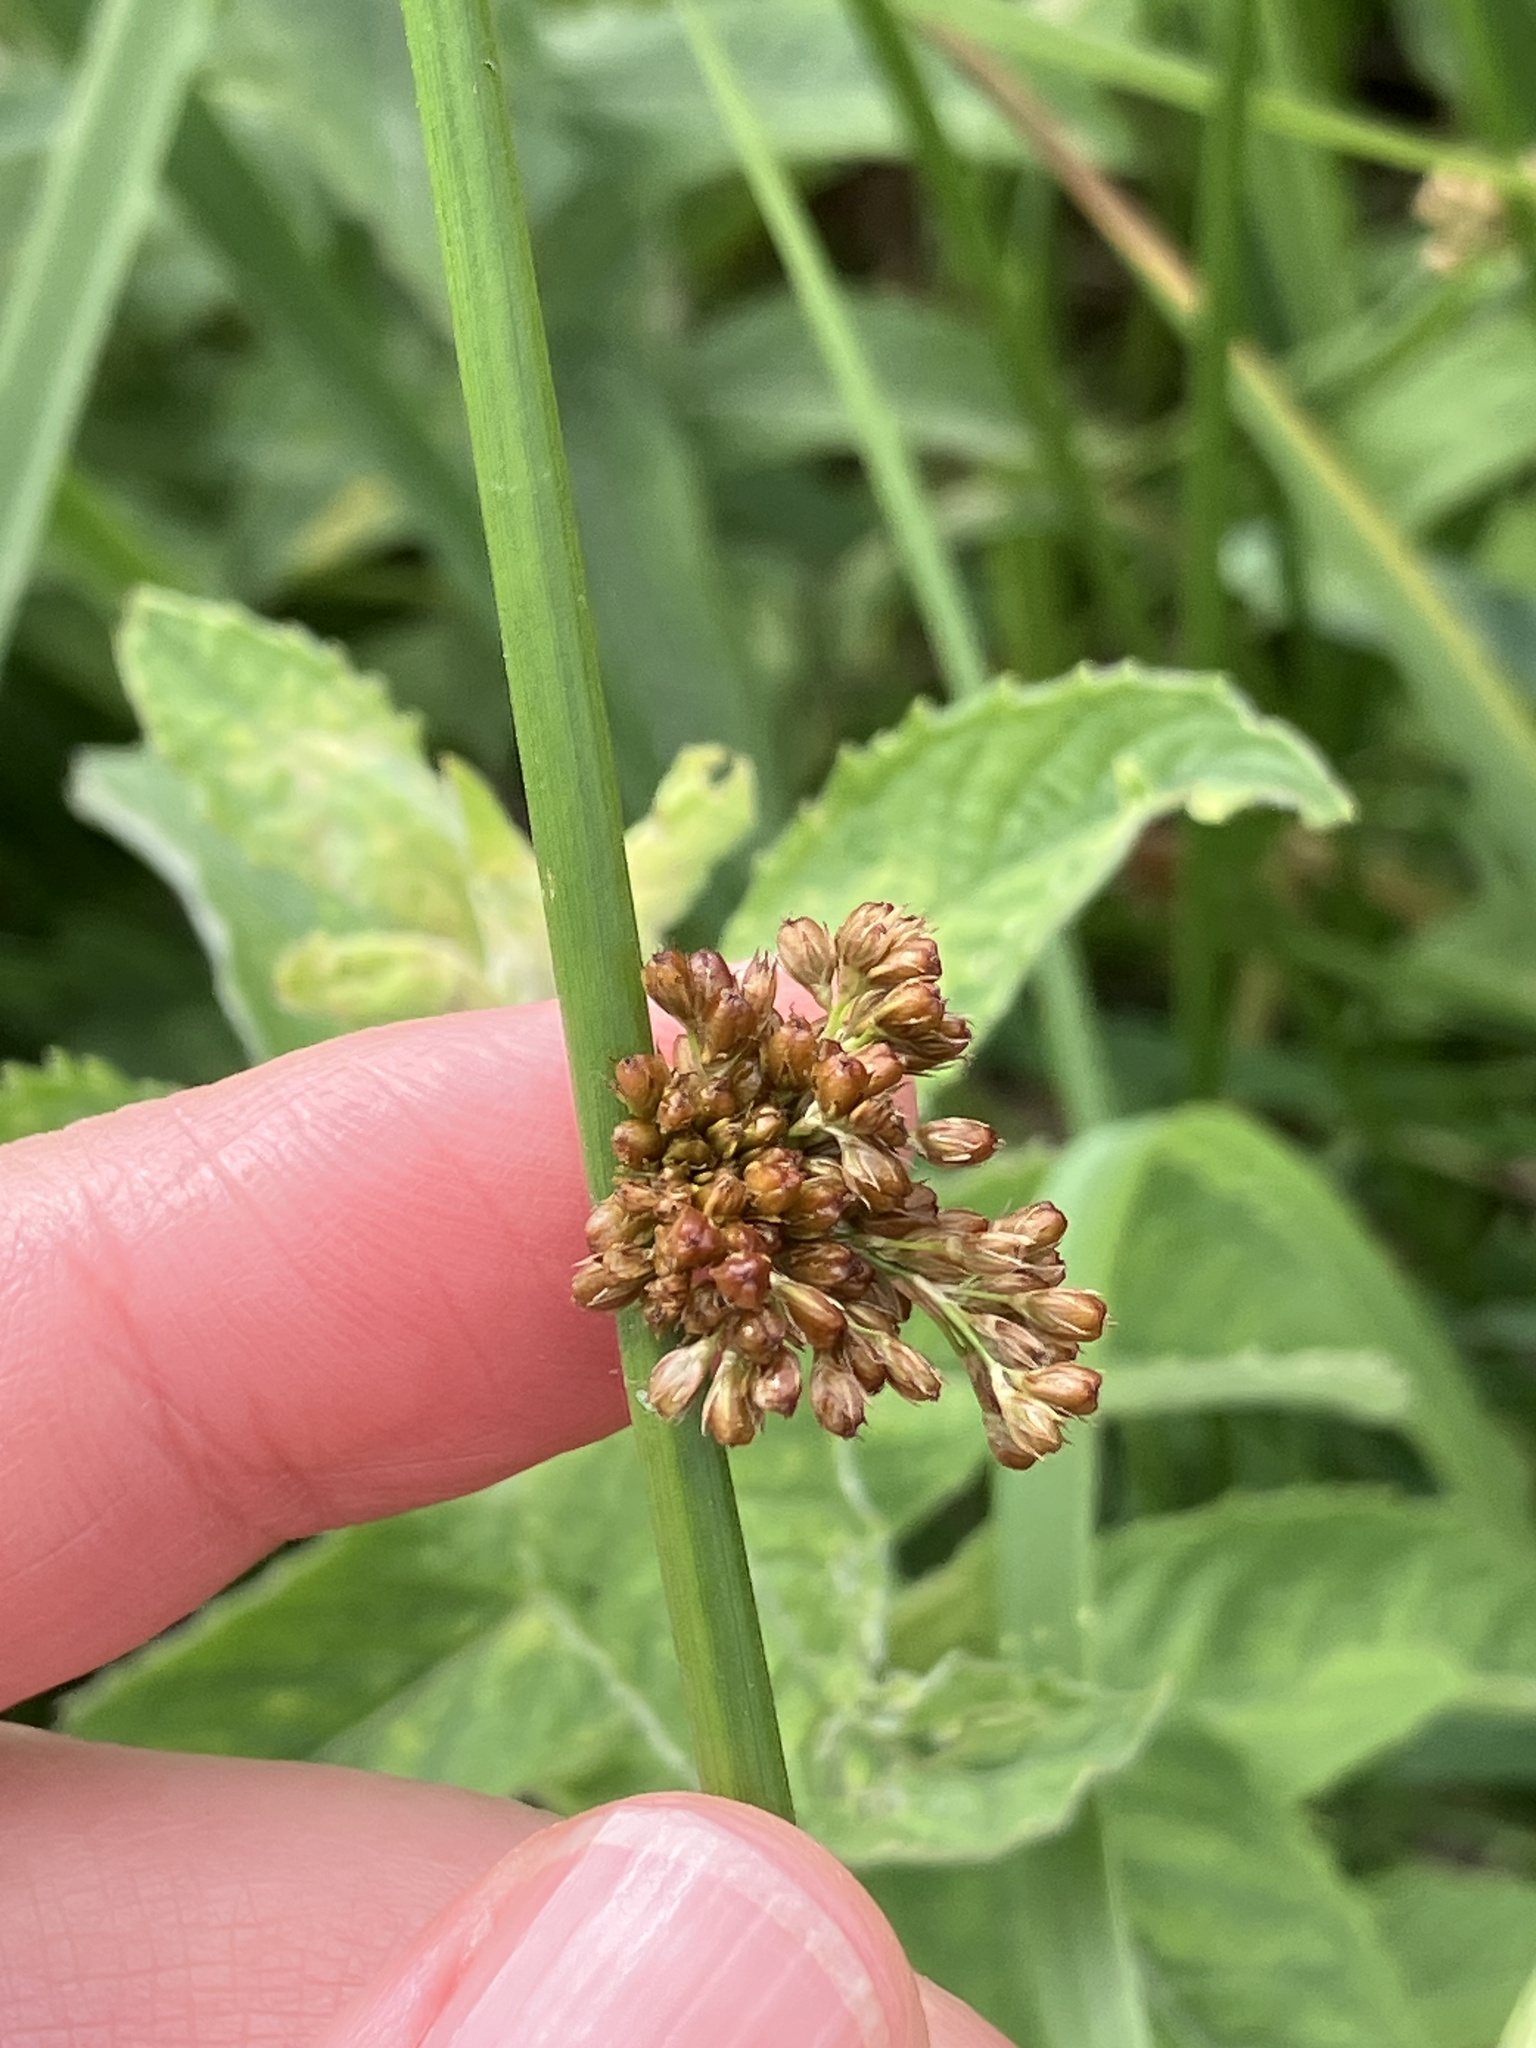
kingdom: Plantae
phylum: Tracheophyta
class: Liliopsida
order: Poales
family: Juncaceae
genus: Juncus
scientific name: Juncus effusus
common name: Soft rush
